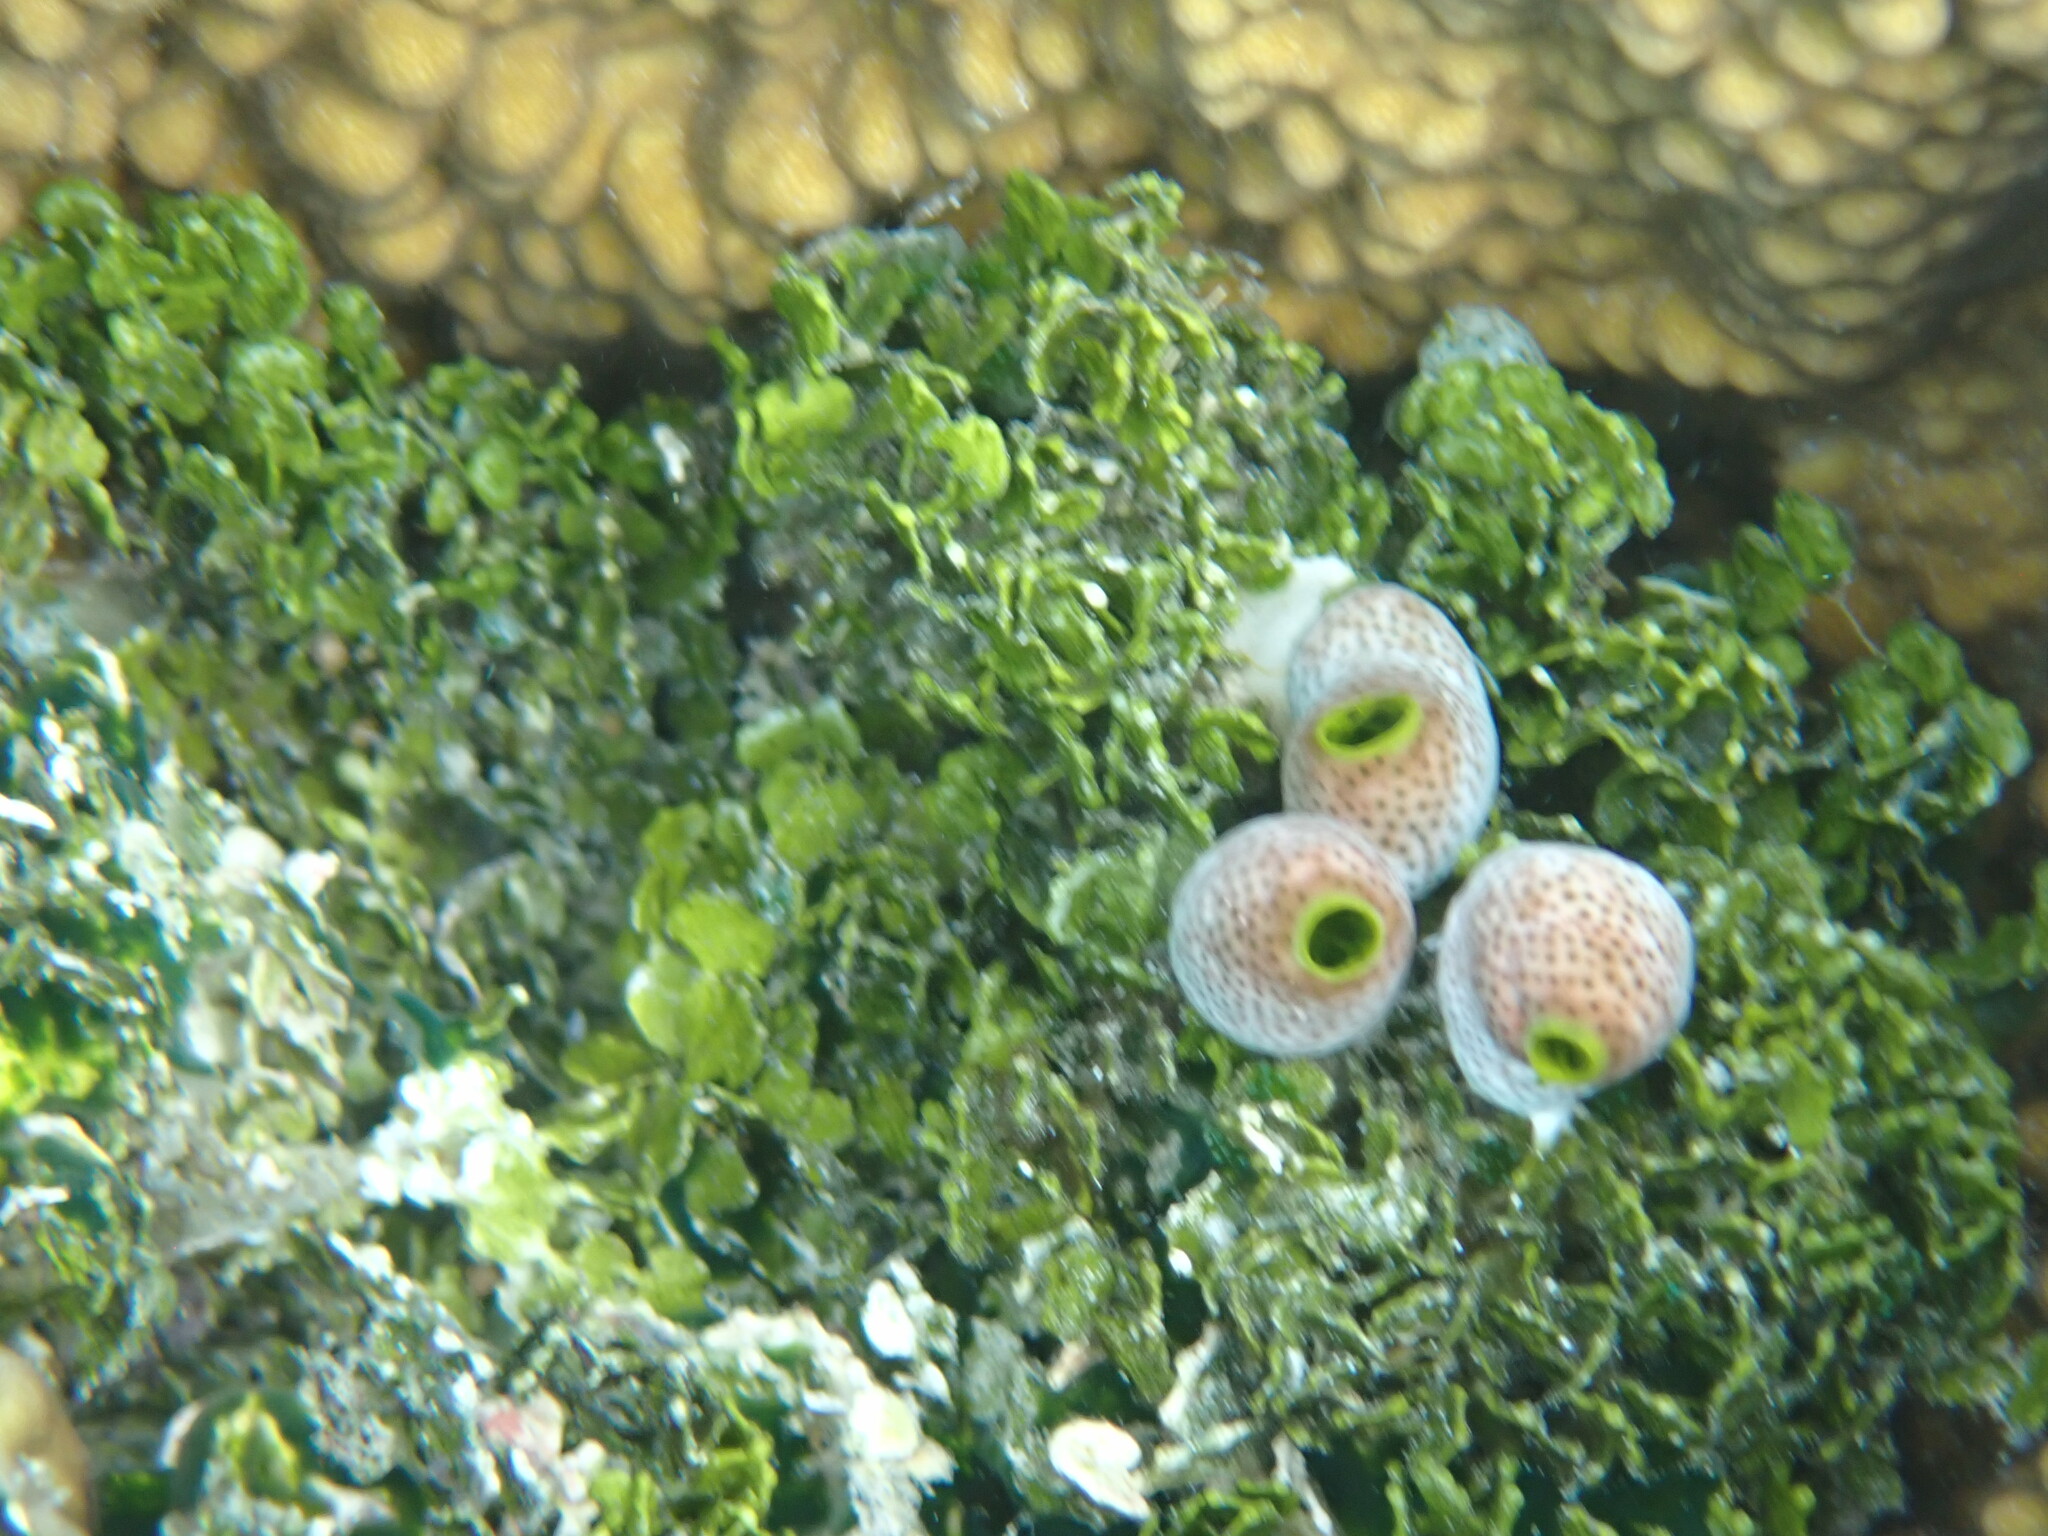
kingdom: Animalia
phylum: Chordata
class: Ascidiacea
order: Aplousobranchia
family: Didemnidae
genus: Didemnum
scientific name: Didemnum molle
